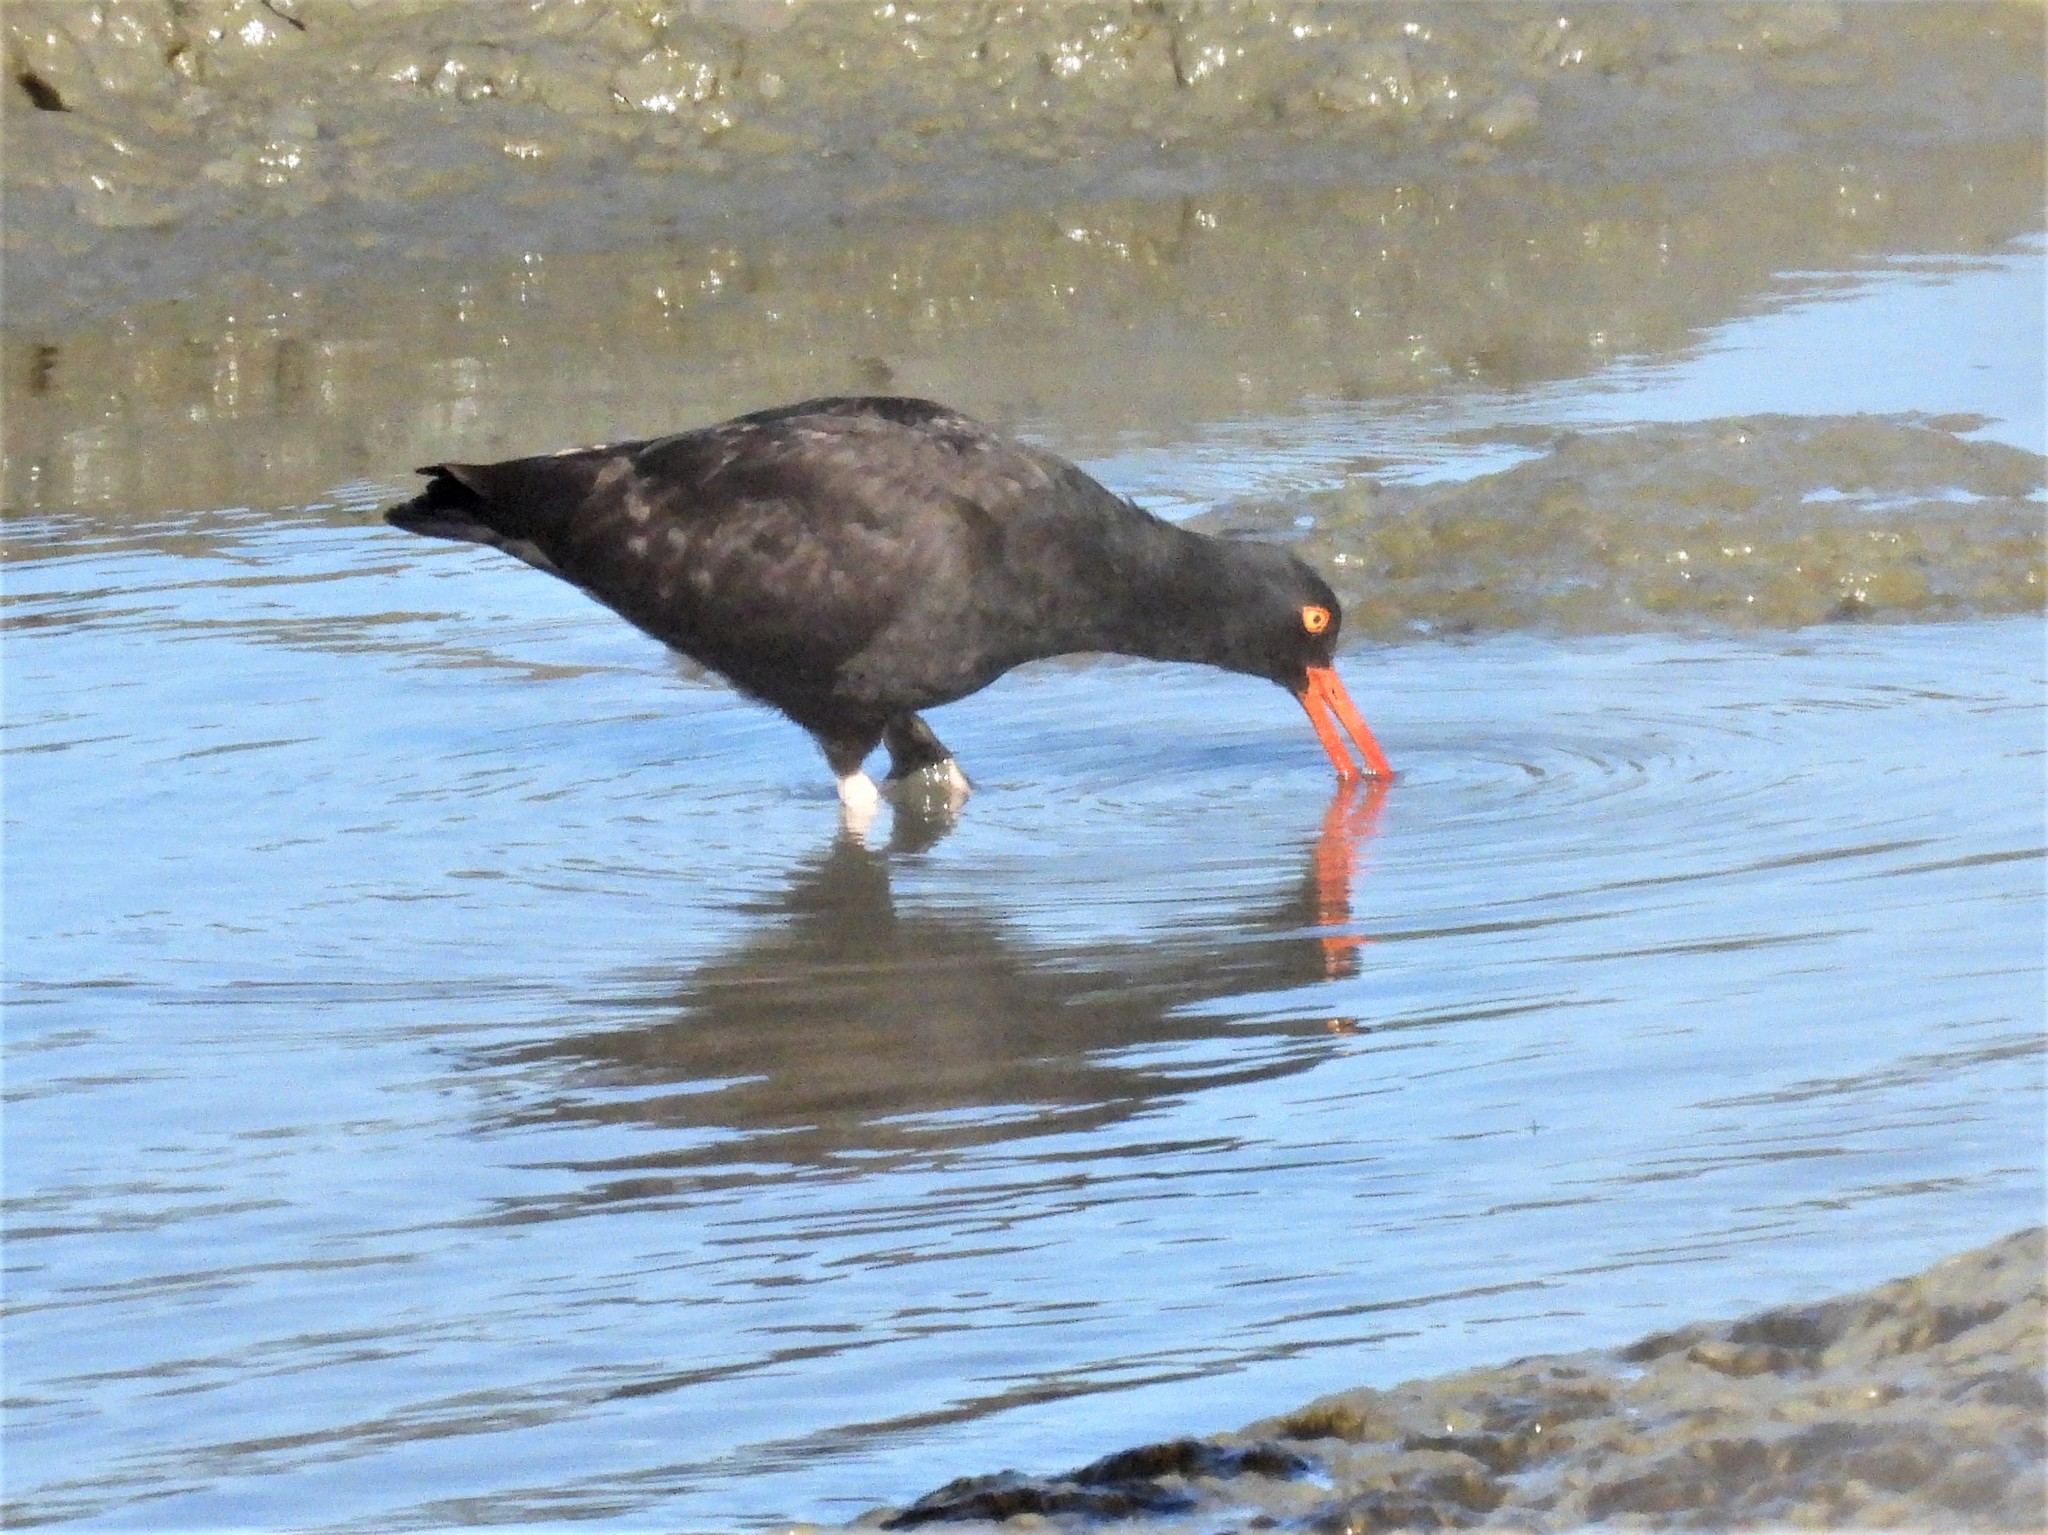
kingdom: Animalia
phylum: Chordata
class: Aves
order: Charadriiformes
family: Haematopodidae
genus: Haematopus
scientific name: Haematopus bachmani
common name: Black oystercatcher
